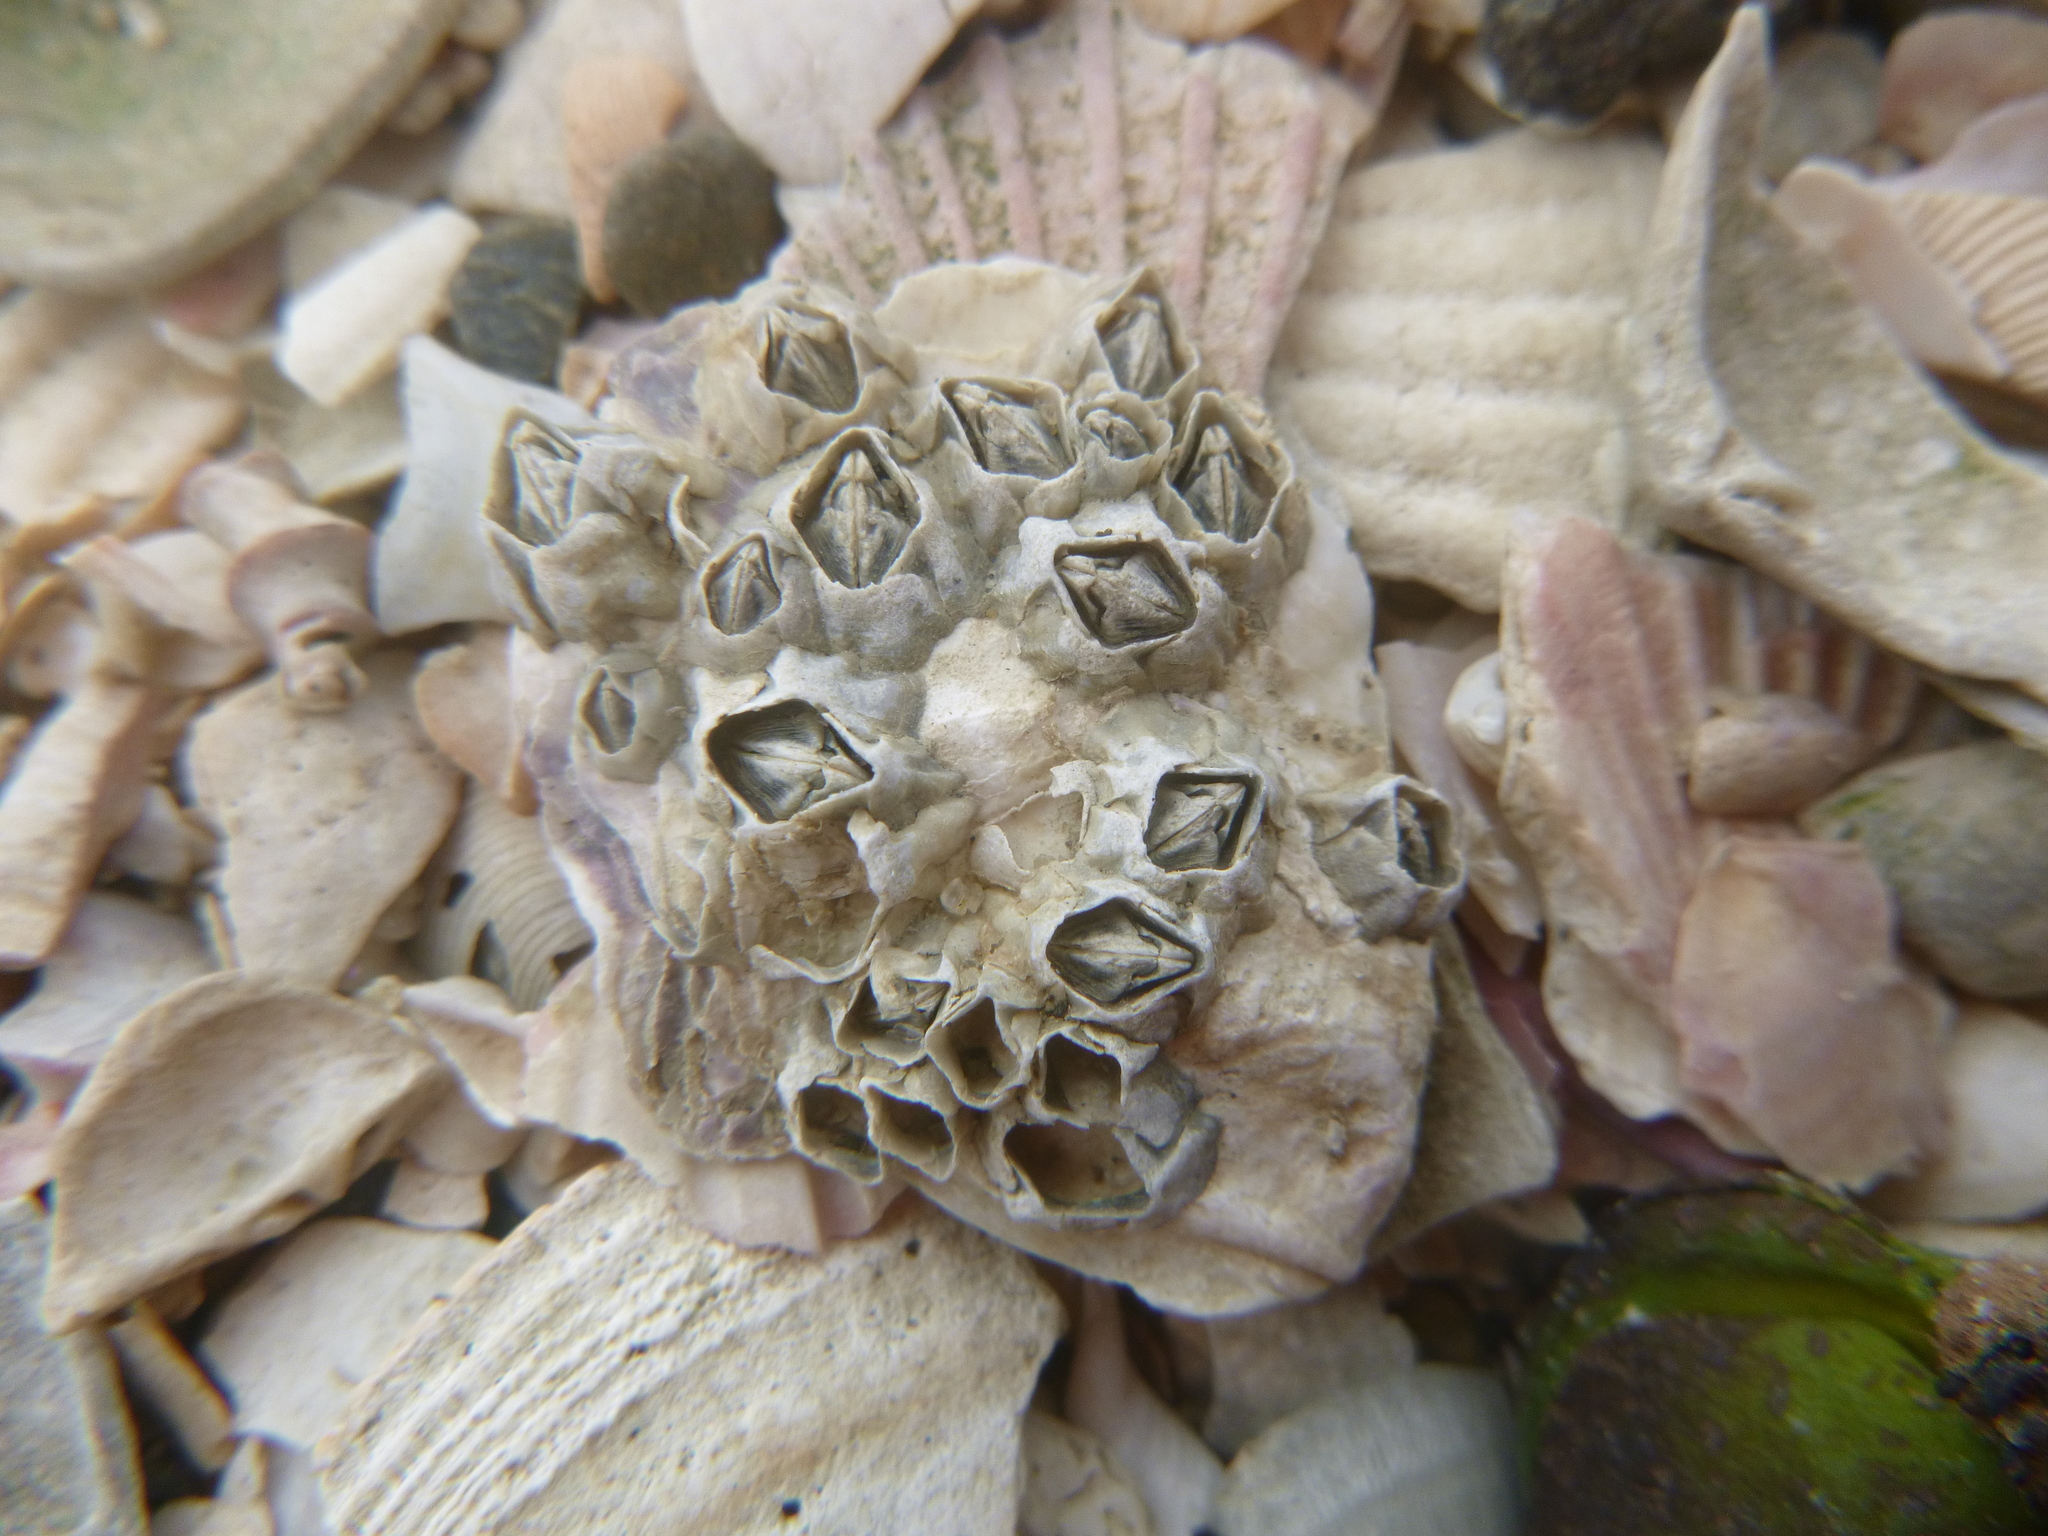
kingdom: Animalia
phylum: Arthropoda
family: Elminiidae
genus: Austrominius
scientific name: Austrominius modestus
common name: Australasian barnacle
